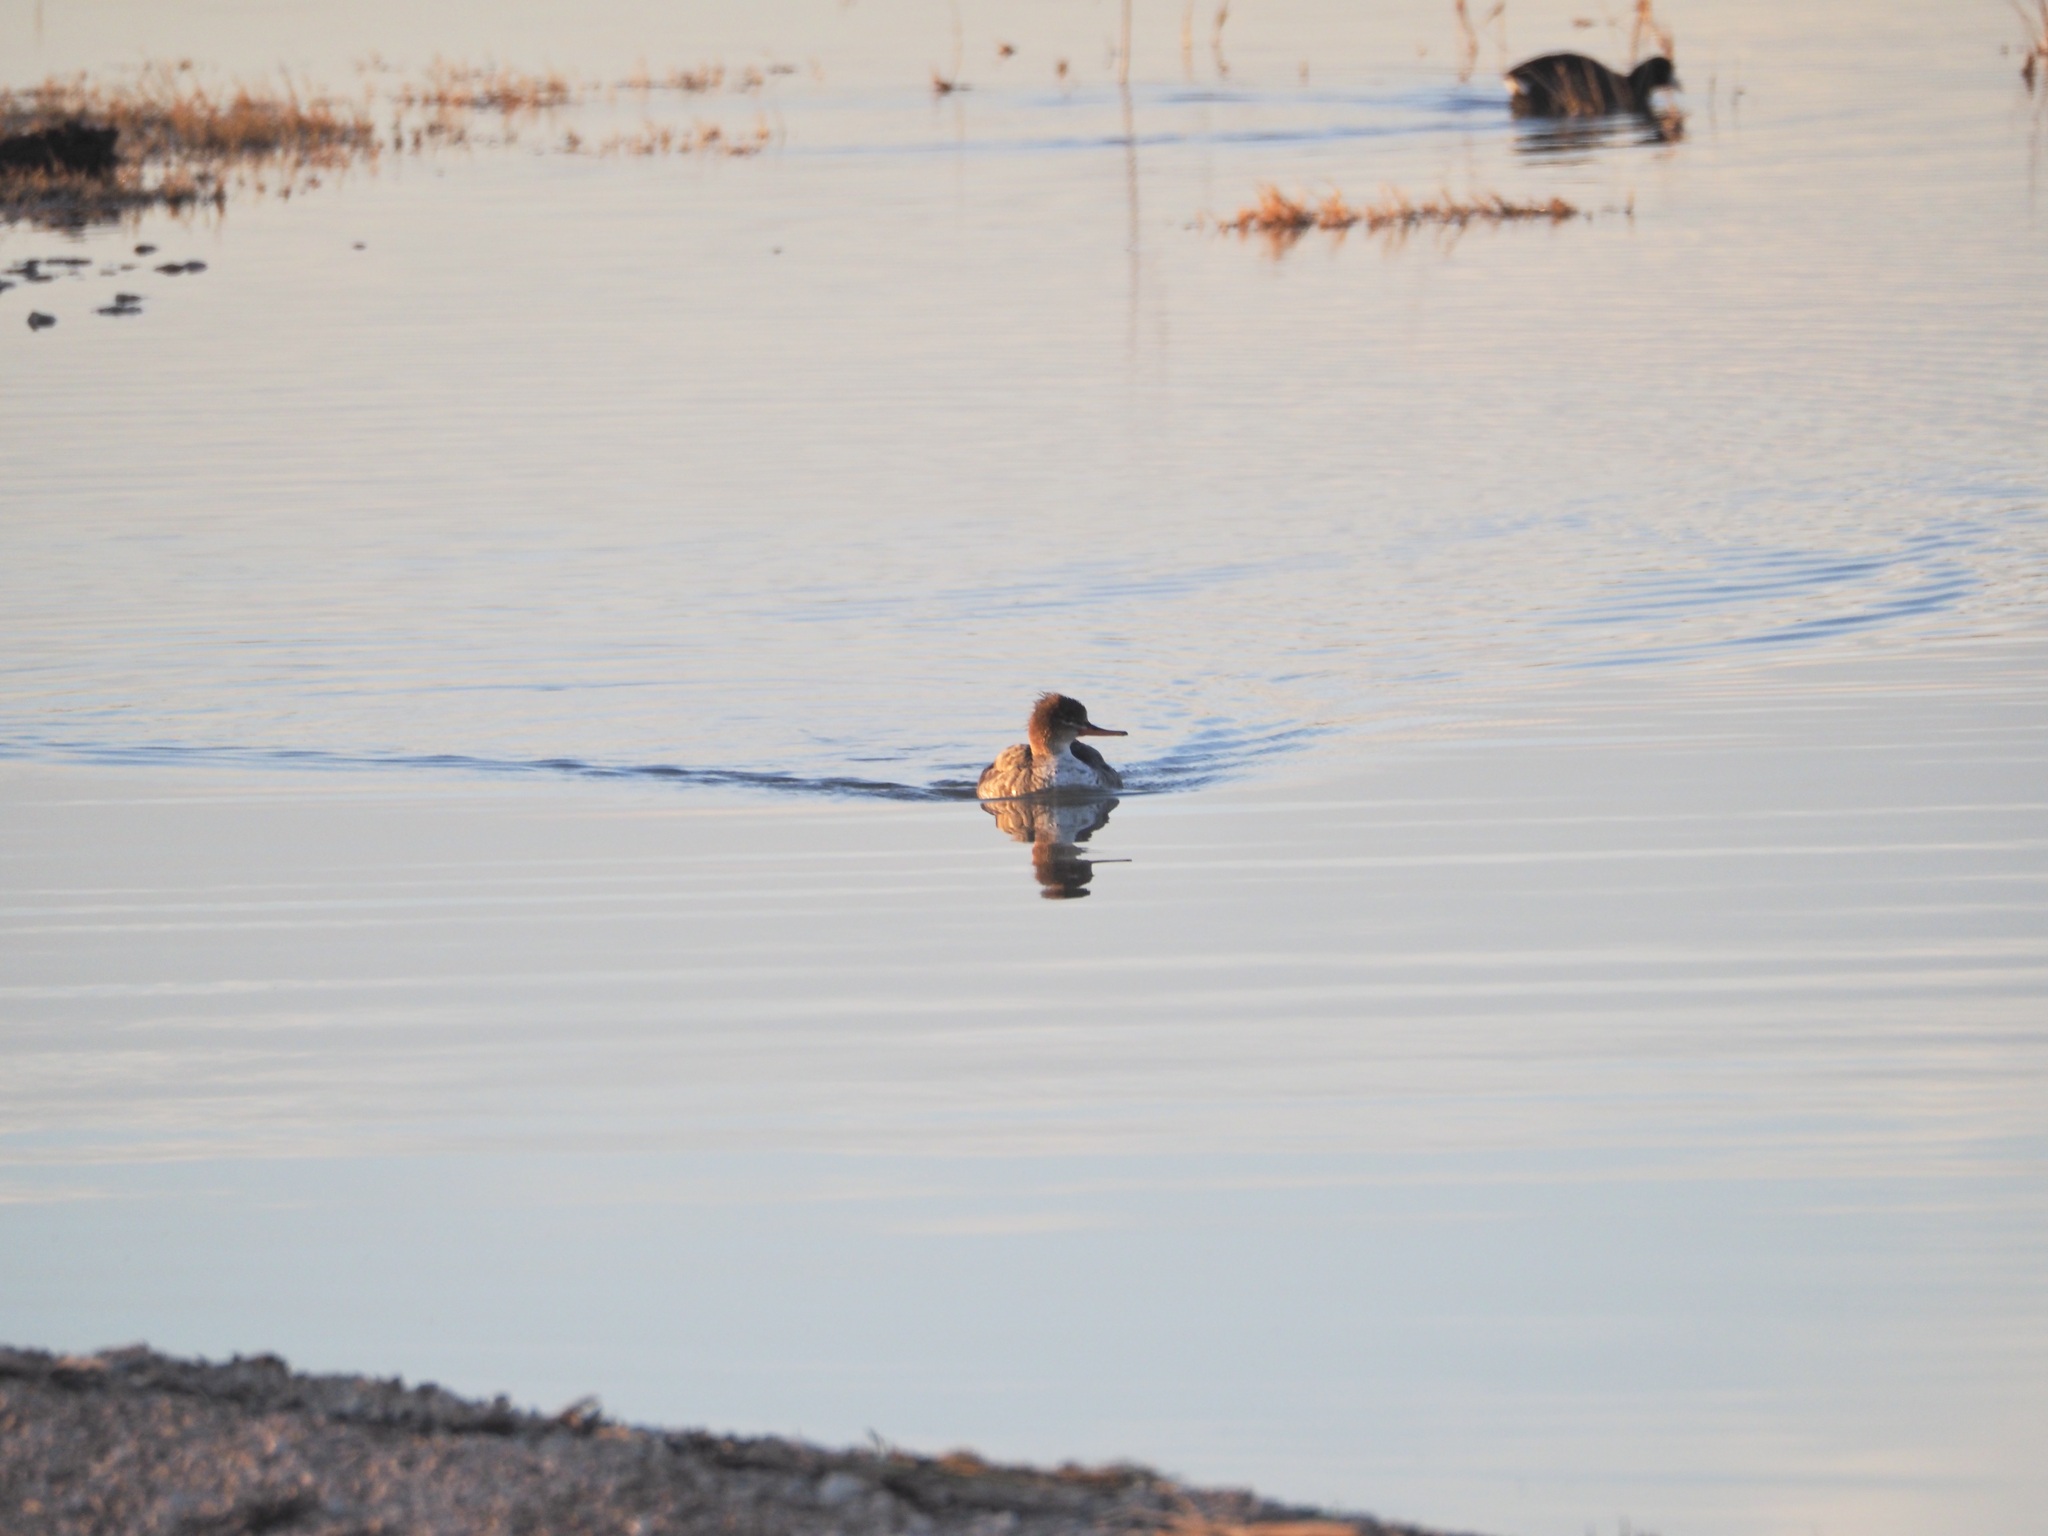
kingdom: Animalia
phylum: Chordata
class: Aves
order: Anseriformes
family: Anatidae
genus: Mergus
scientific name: Mergus serrator
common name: Red-breasted merganser
